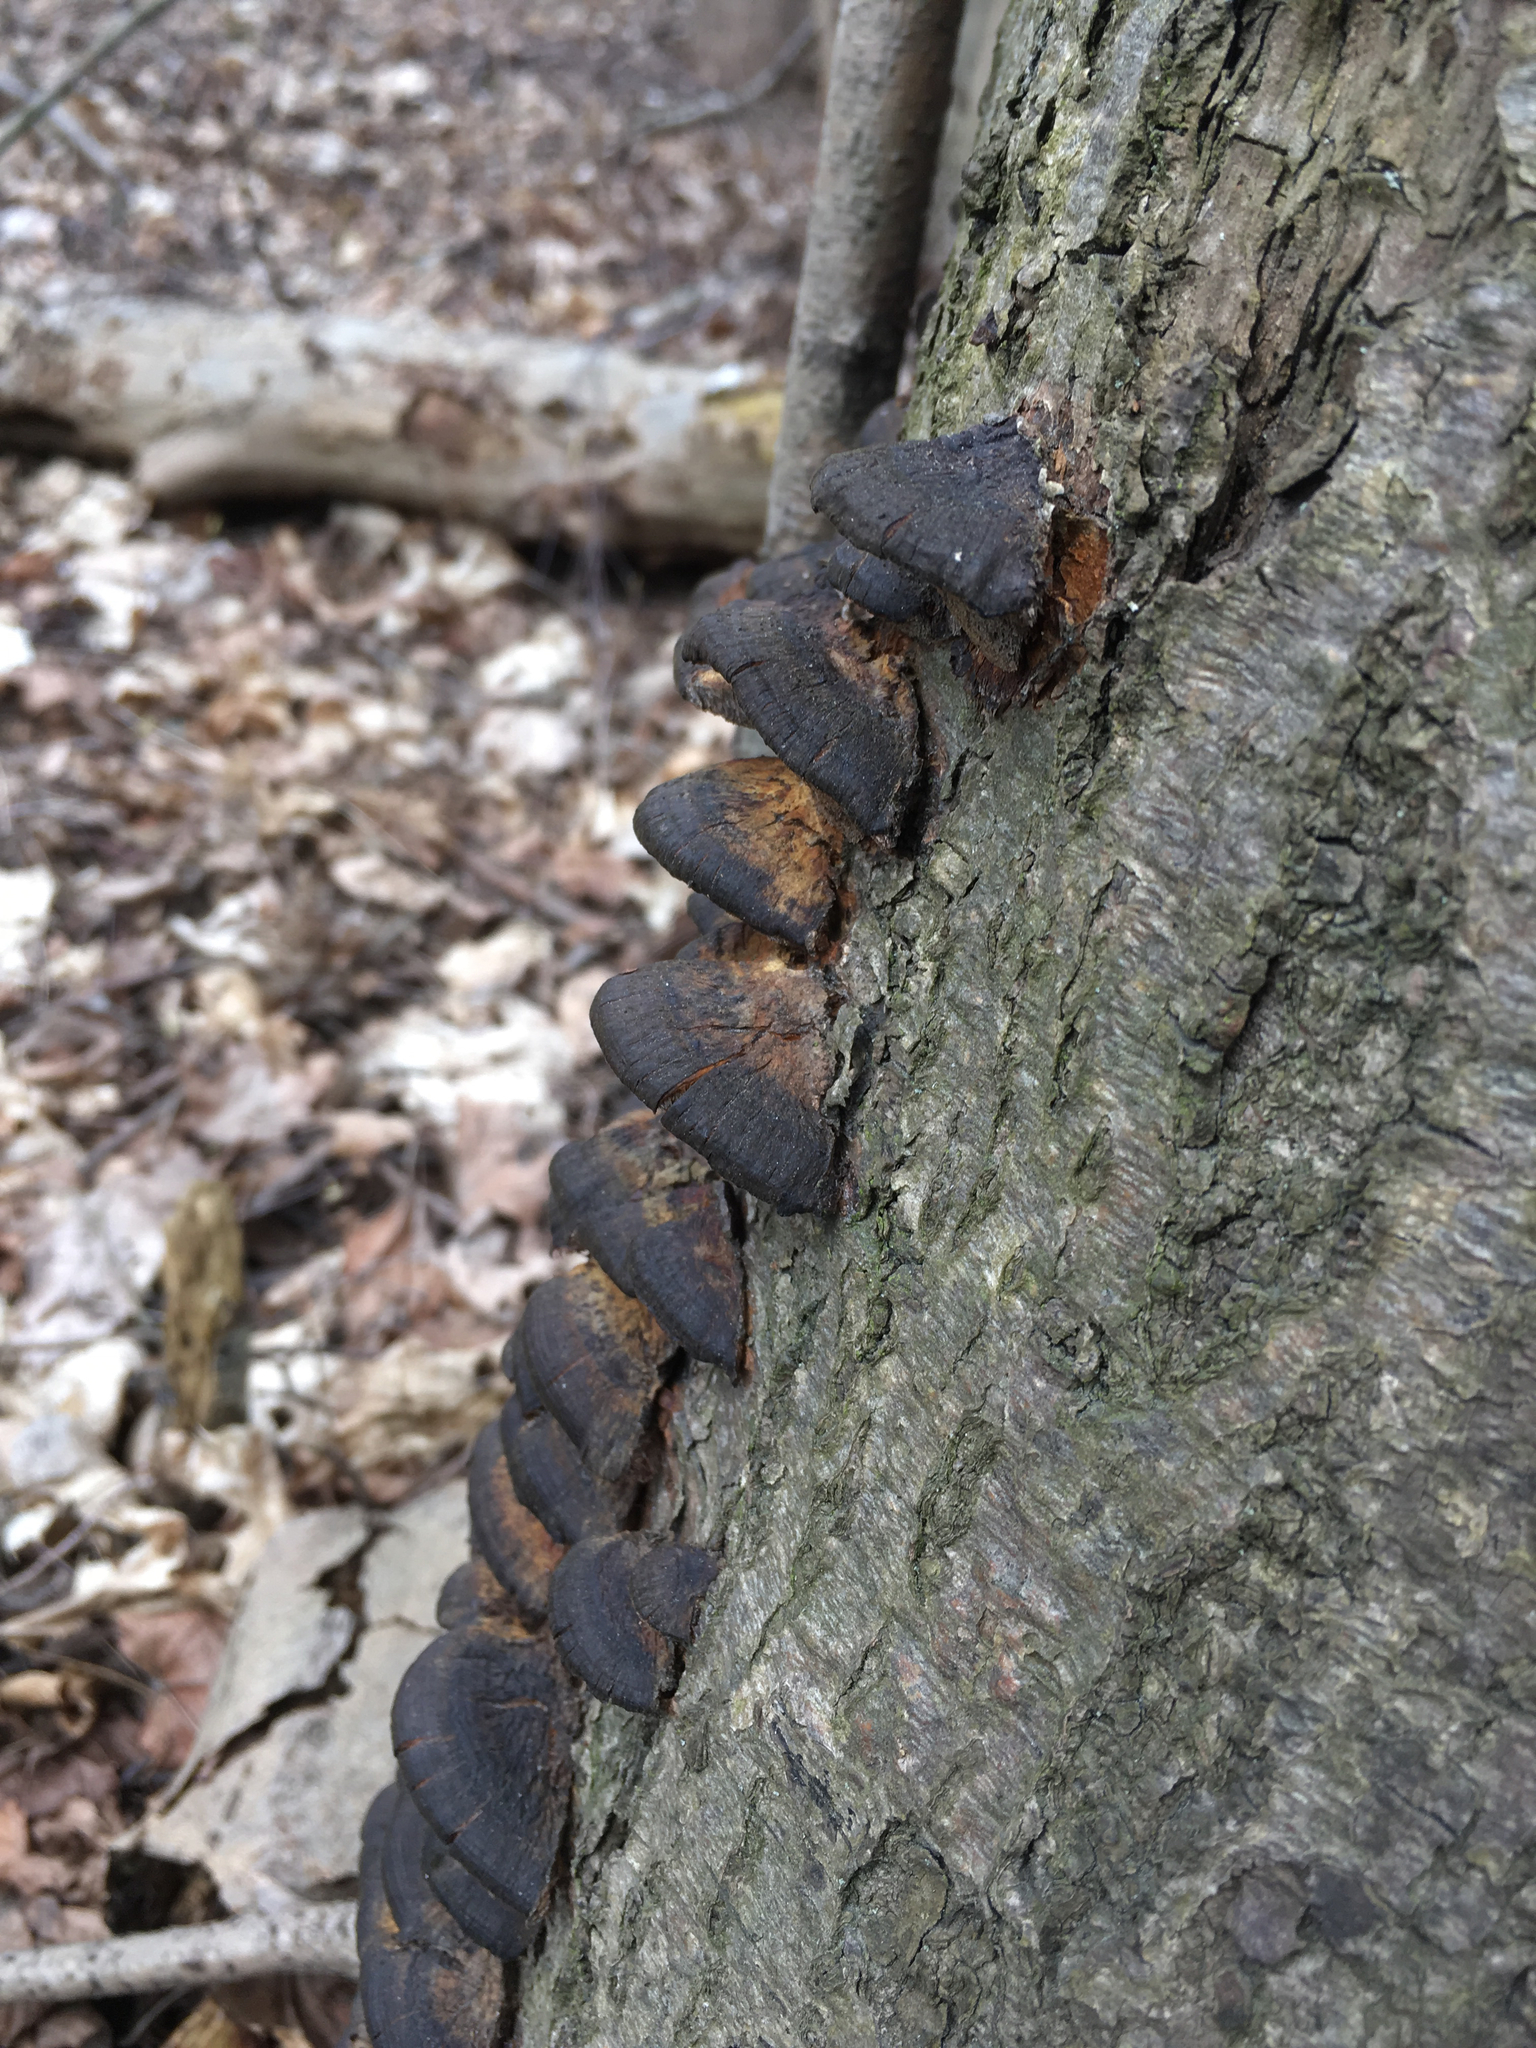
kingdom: Fungi
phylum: Basidiomycota
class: Agaricomycetes
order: Hymenochaetales
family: Hymenochaetaceae
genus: Xanthoporia
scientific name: Xanthoporia radiata
